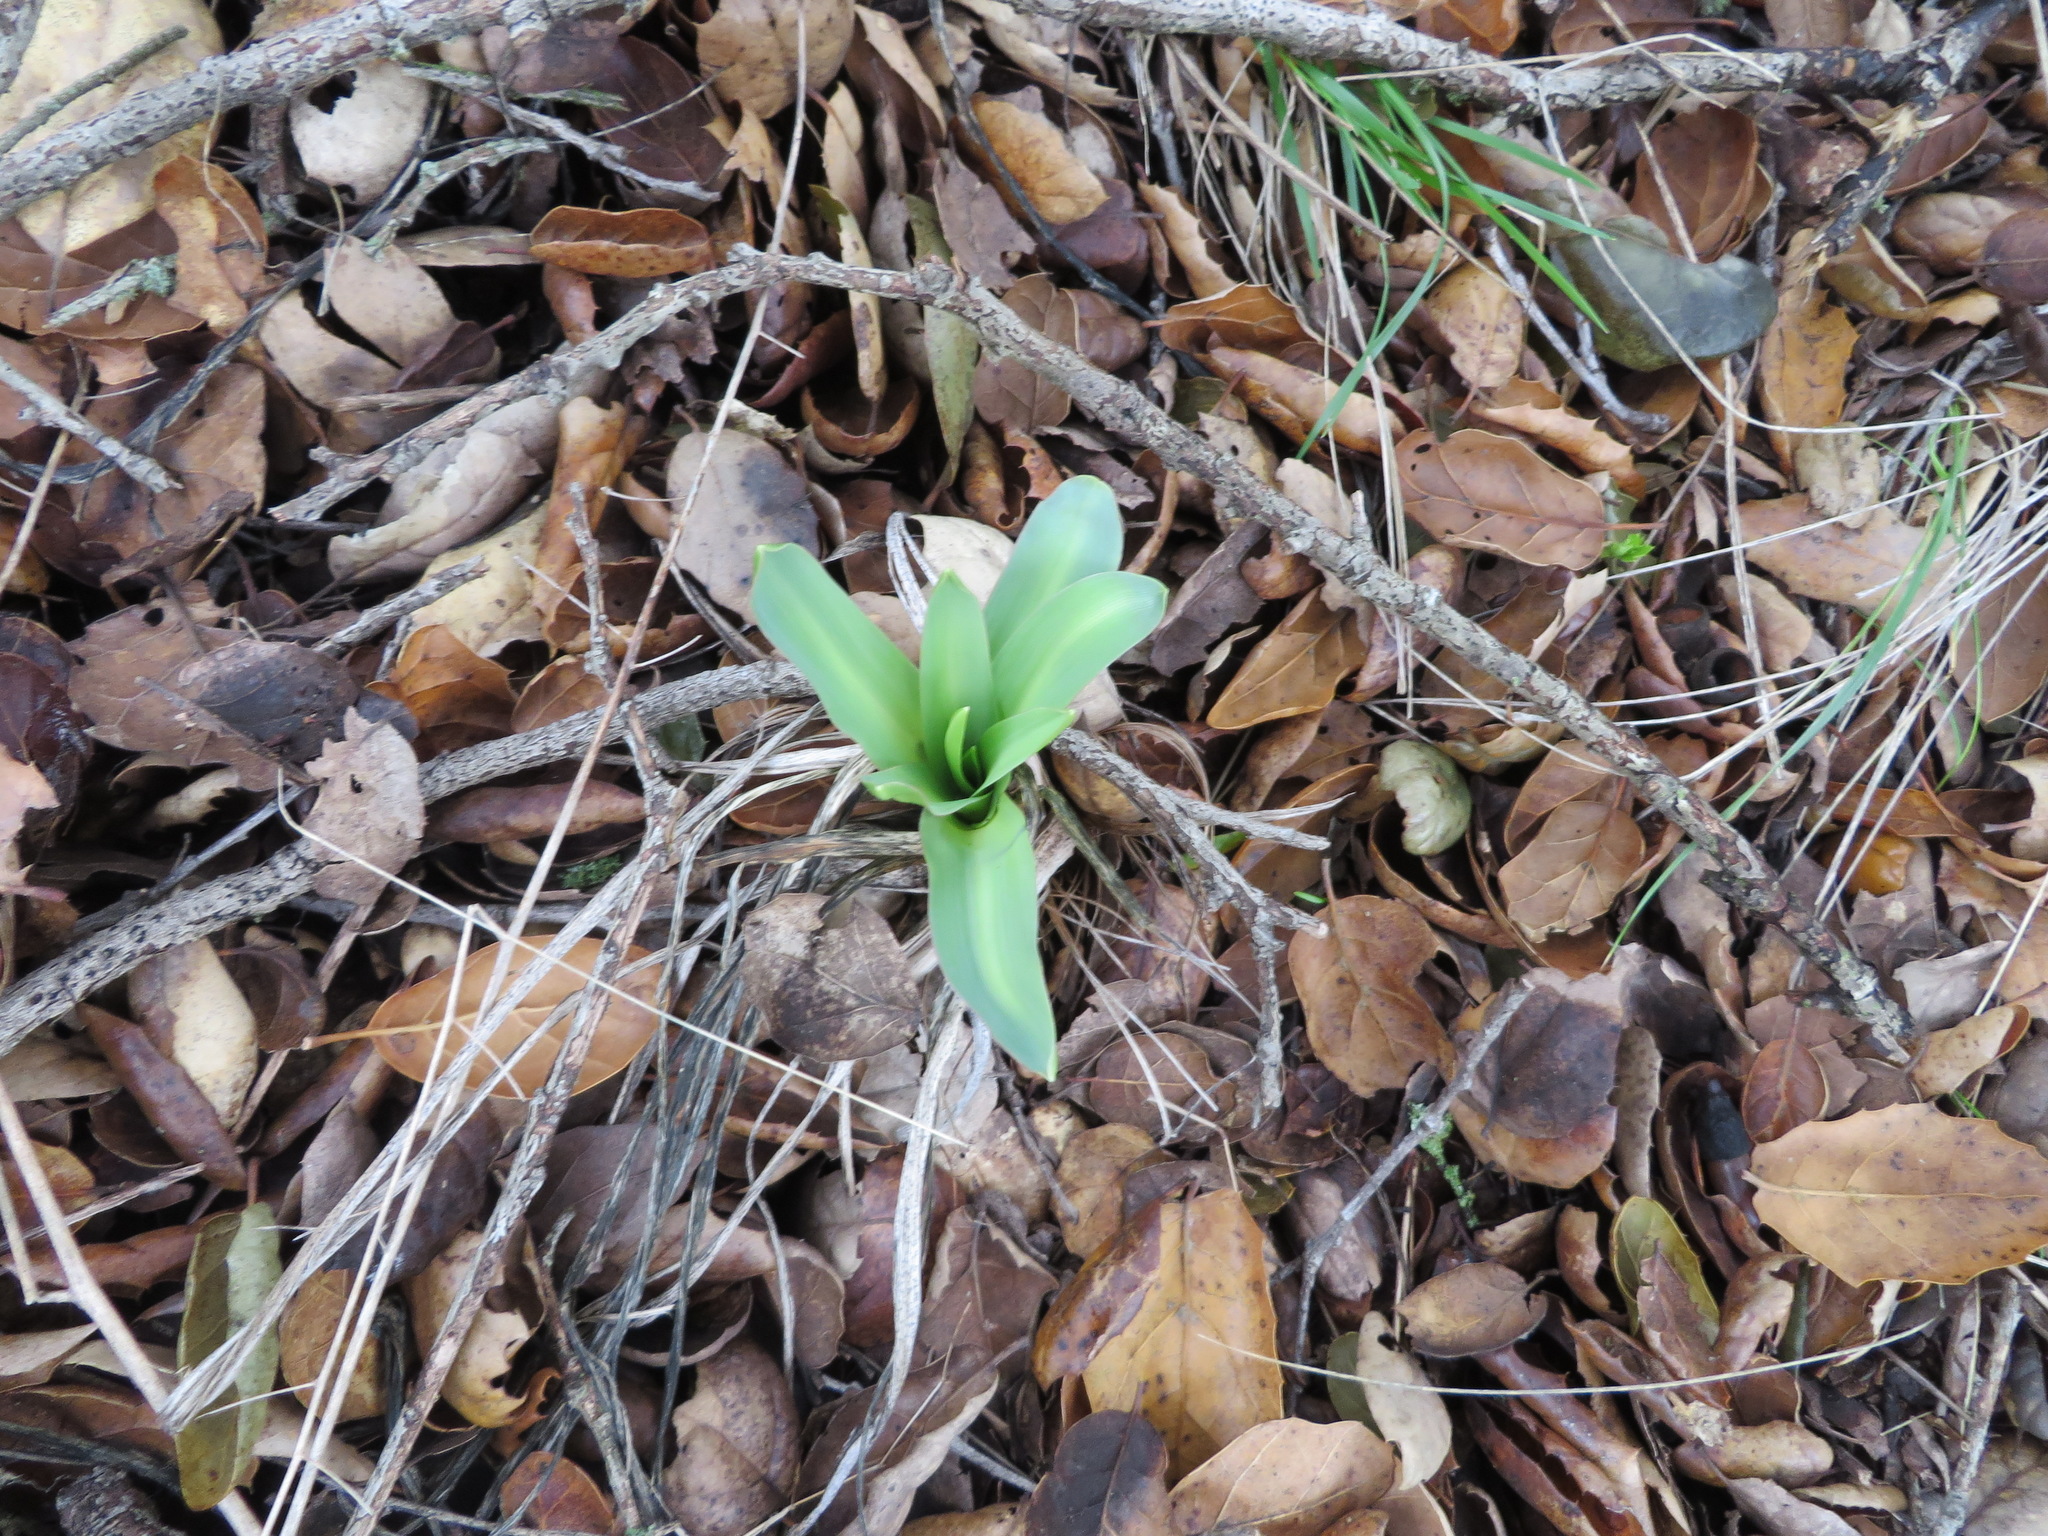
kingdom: Plantae
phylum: Tracheophyta
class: Liliopsida
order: Asparagales
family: Asparagaceae
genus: Chlorogalum
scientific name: Chlorogalum pomeridianum
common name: Amole
